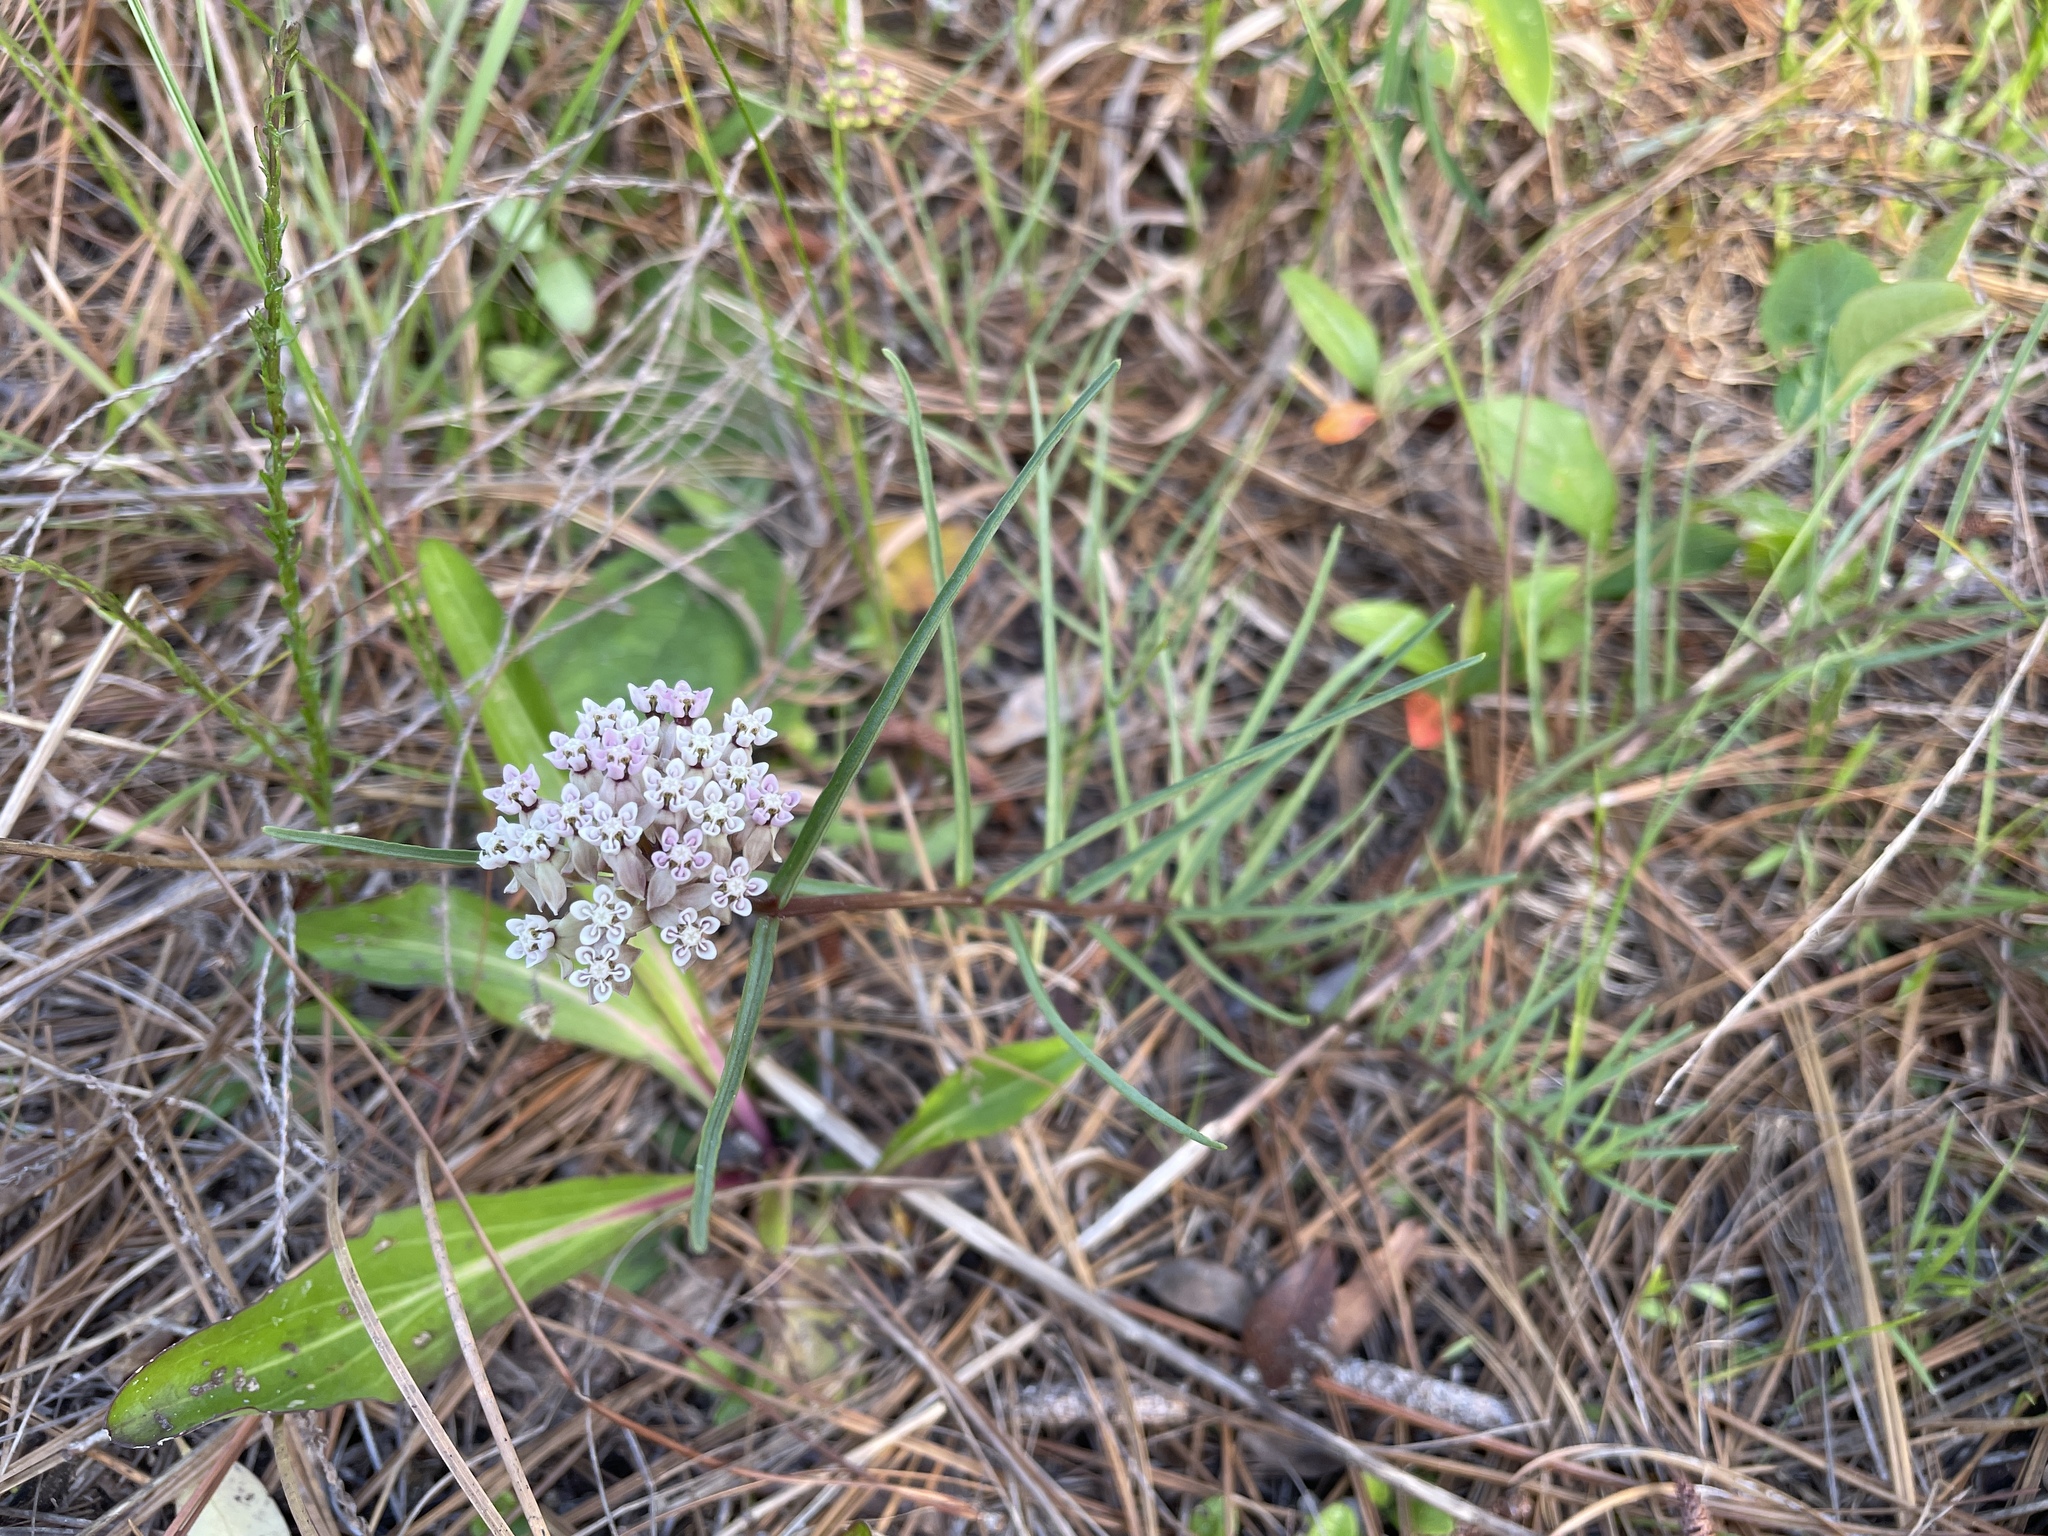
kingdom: Plantae
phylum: Tracheophyta
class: Magnoliopsida
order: Gentianales
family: Apocynaceae
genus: Asclepias
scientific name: Asclepias michauxii
